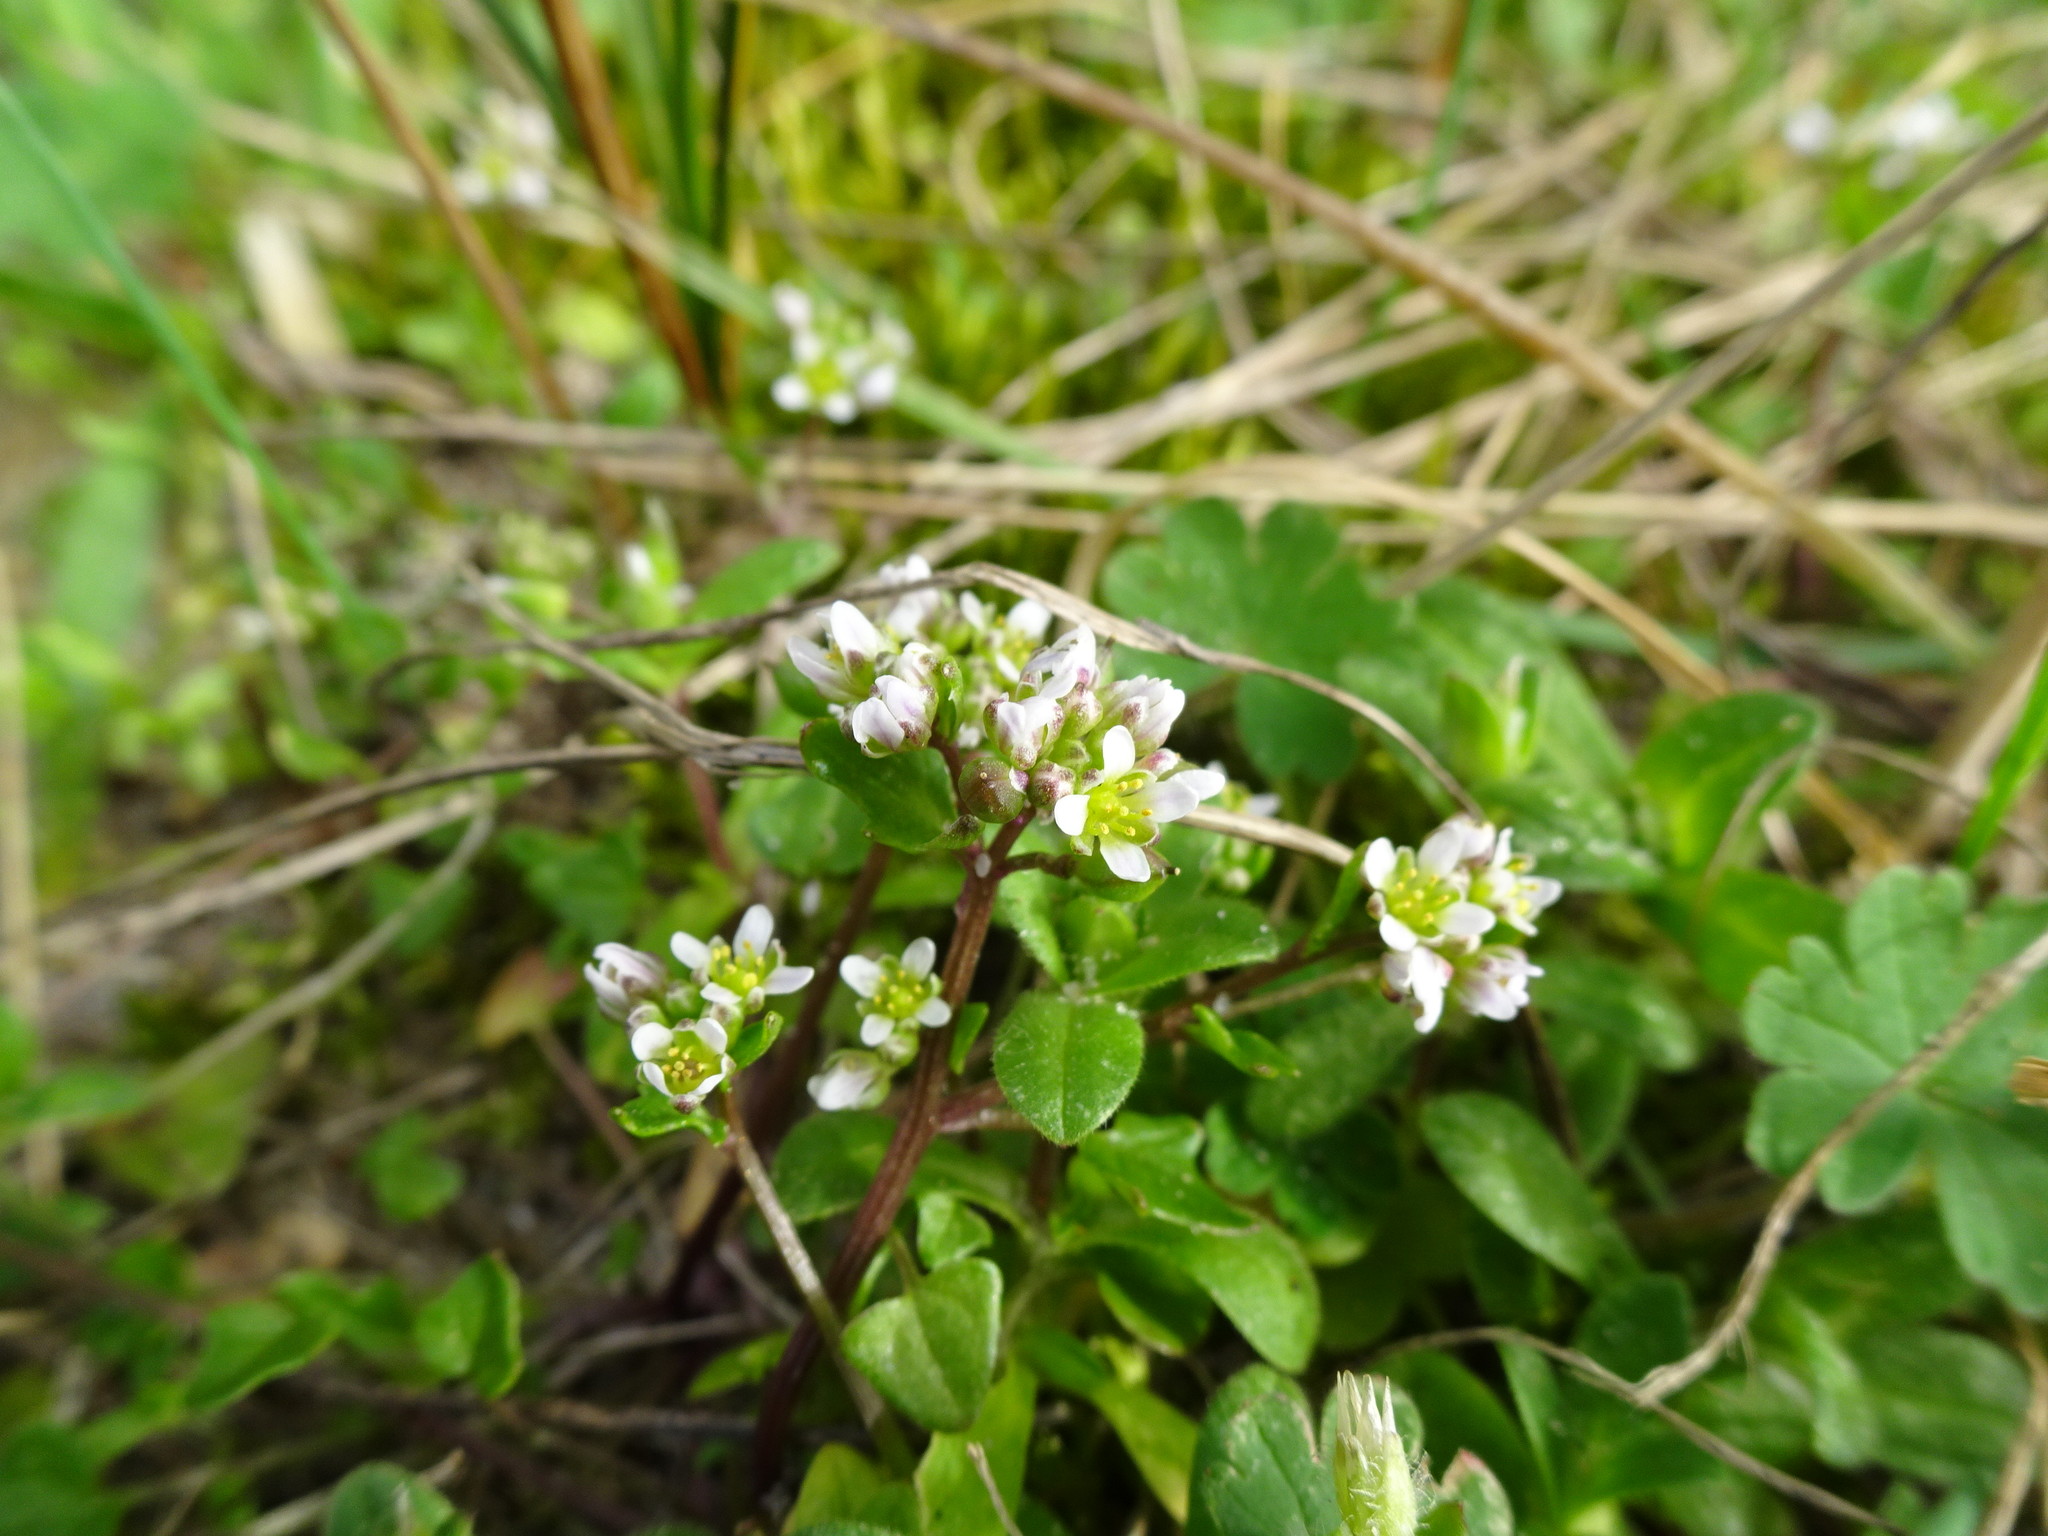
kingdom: Plantae
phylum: Tracheophyta
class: Magnoliopsida
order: Brassicales
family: Brassicaceae
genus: Cochlearia
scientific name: Cochlearia danica
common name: Early scurvygrass
